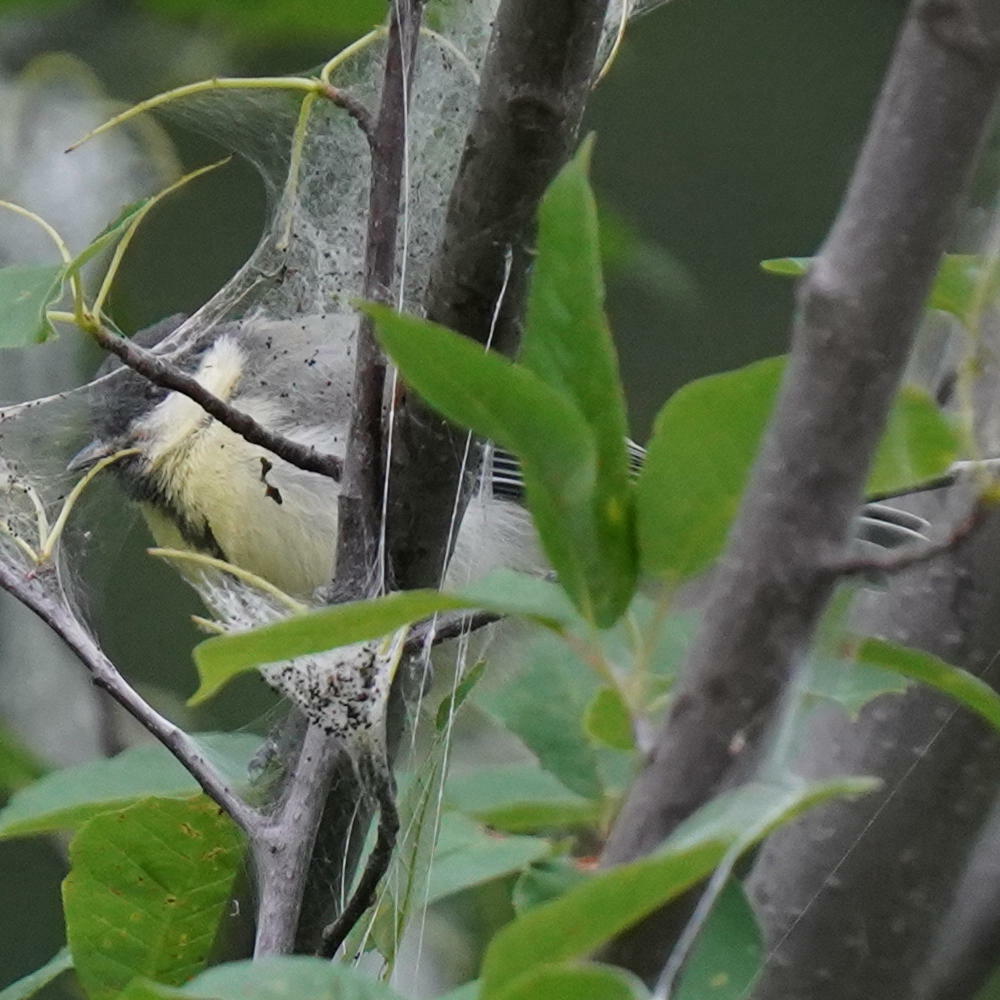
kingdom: Animalia
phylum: Chordata
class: Aves
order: Passeriformes
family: Paridae
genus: Parus
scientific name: Parus major
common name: Great tit
